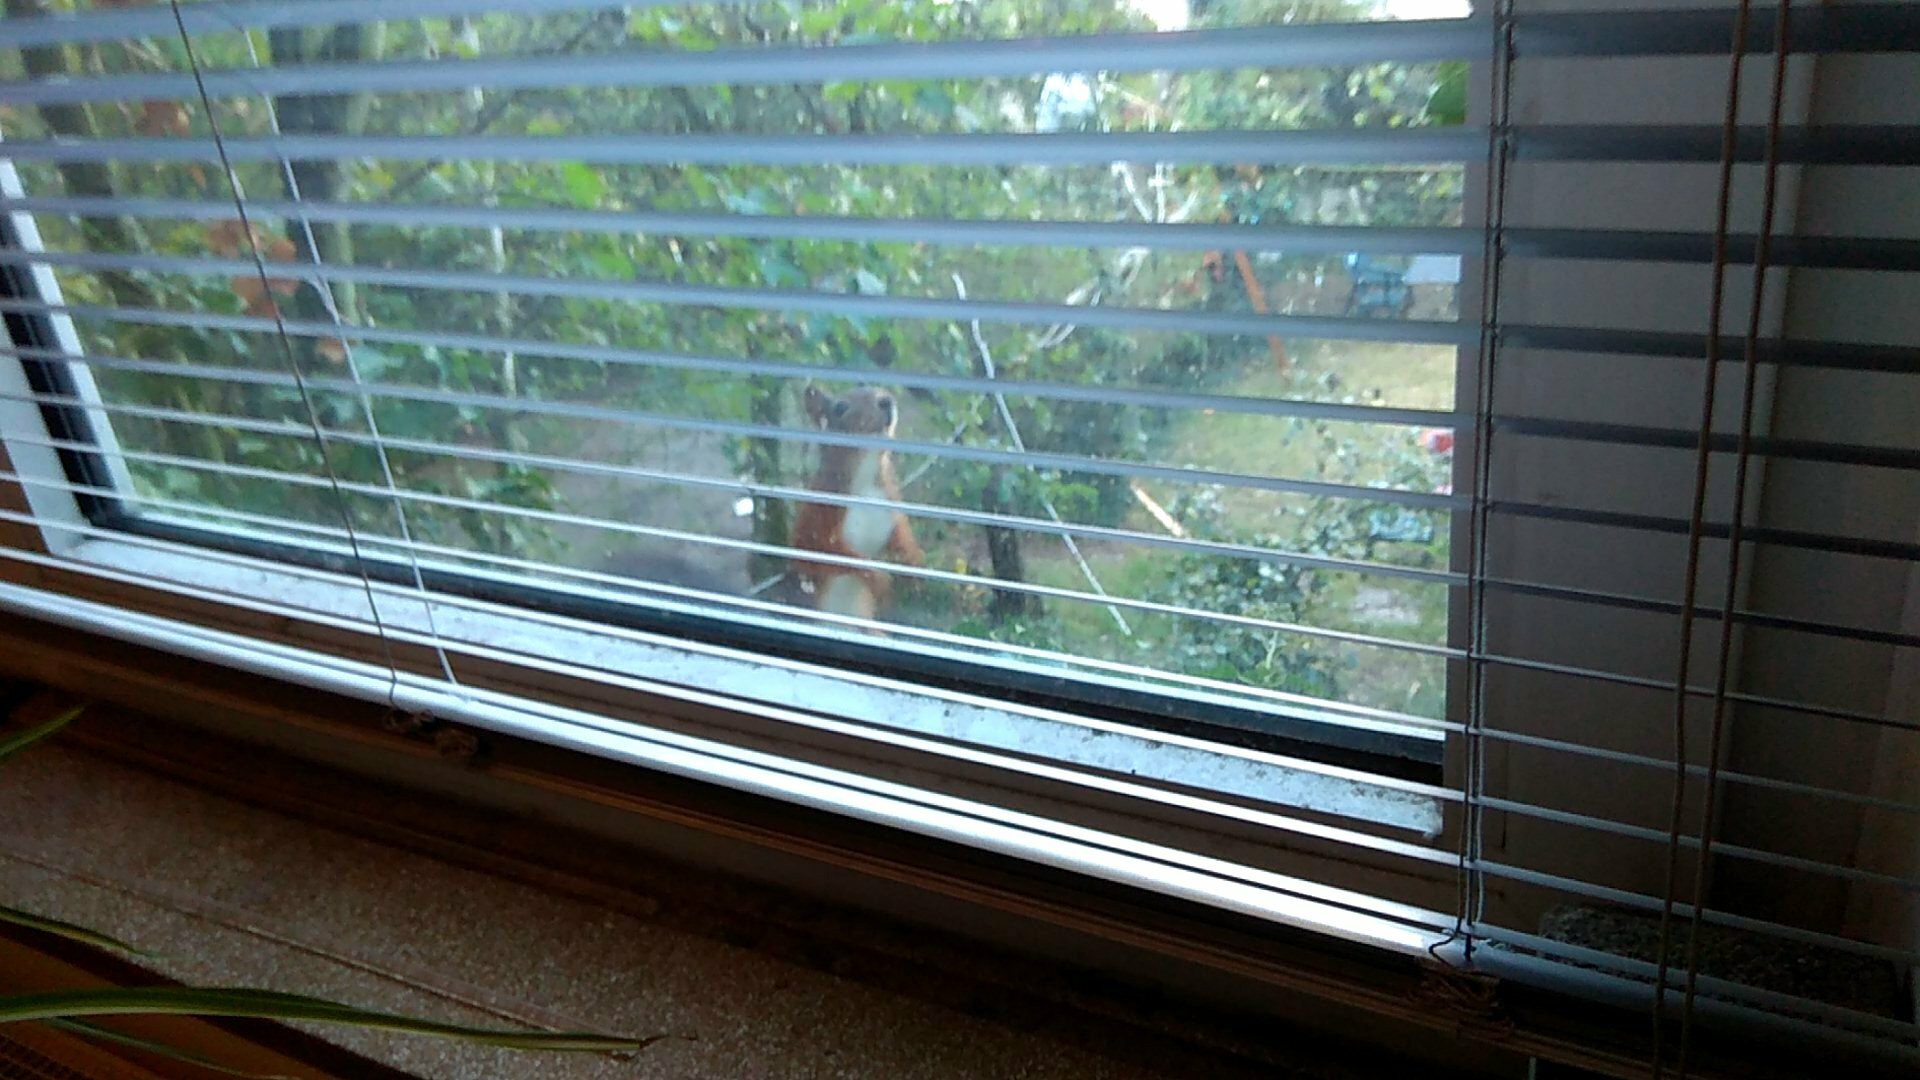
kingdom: Animalia
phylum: Chordata
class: Mammalia
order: Rodentia
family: Sciuridae
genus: Sciurus
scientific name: Sciurus vulgaris
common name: Eurasian red squirrel
